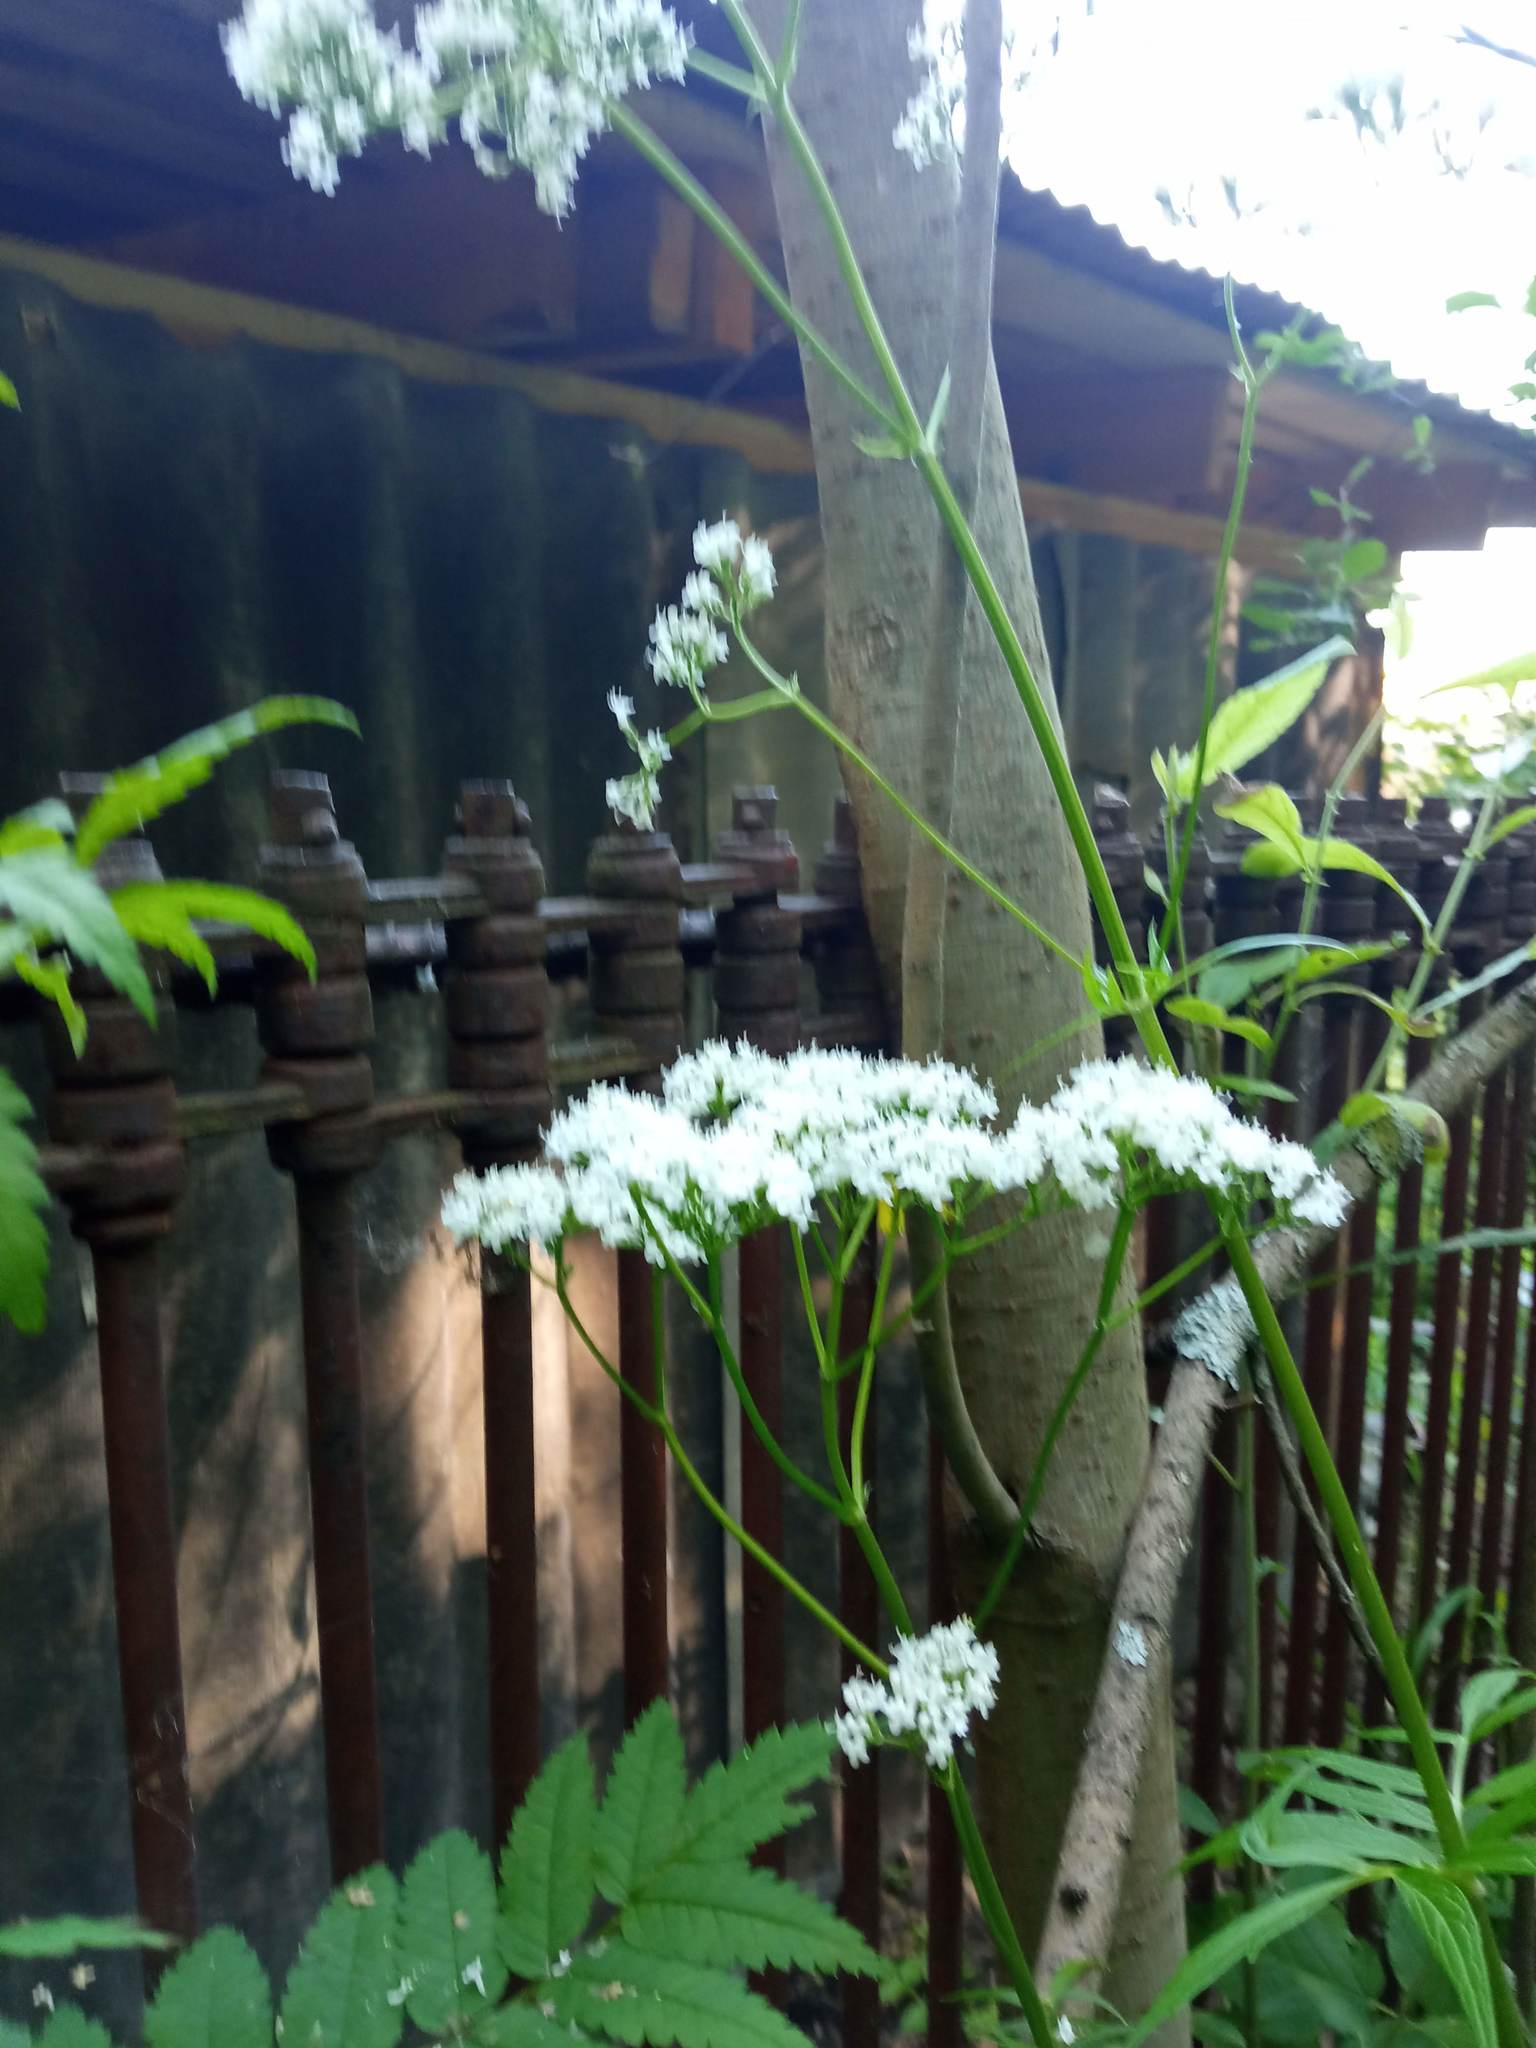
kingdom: Plantae
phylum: Tracheophyta
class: Magnoliopsida
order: Dipsacales
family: Caprifoliaceae
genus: Valeriana
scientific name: Valeriana wolgensis
